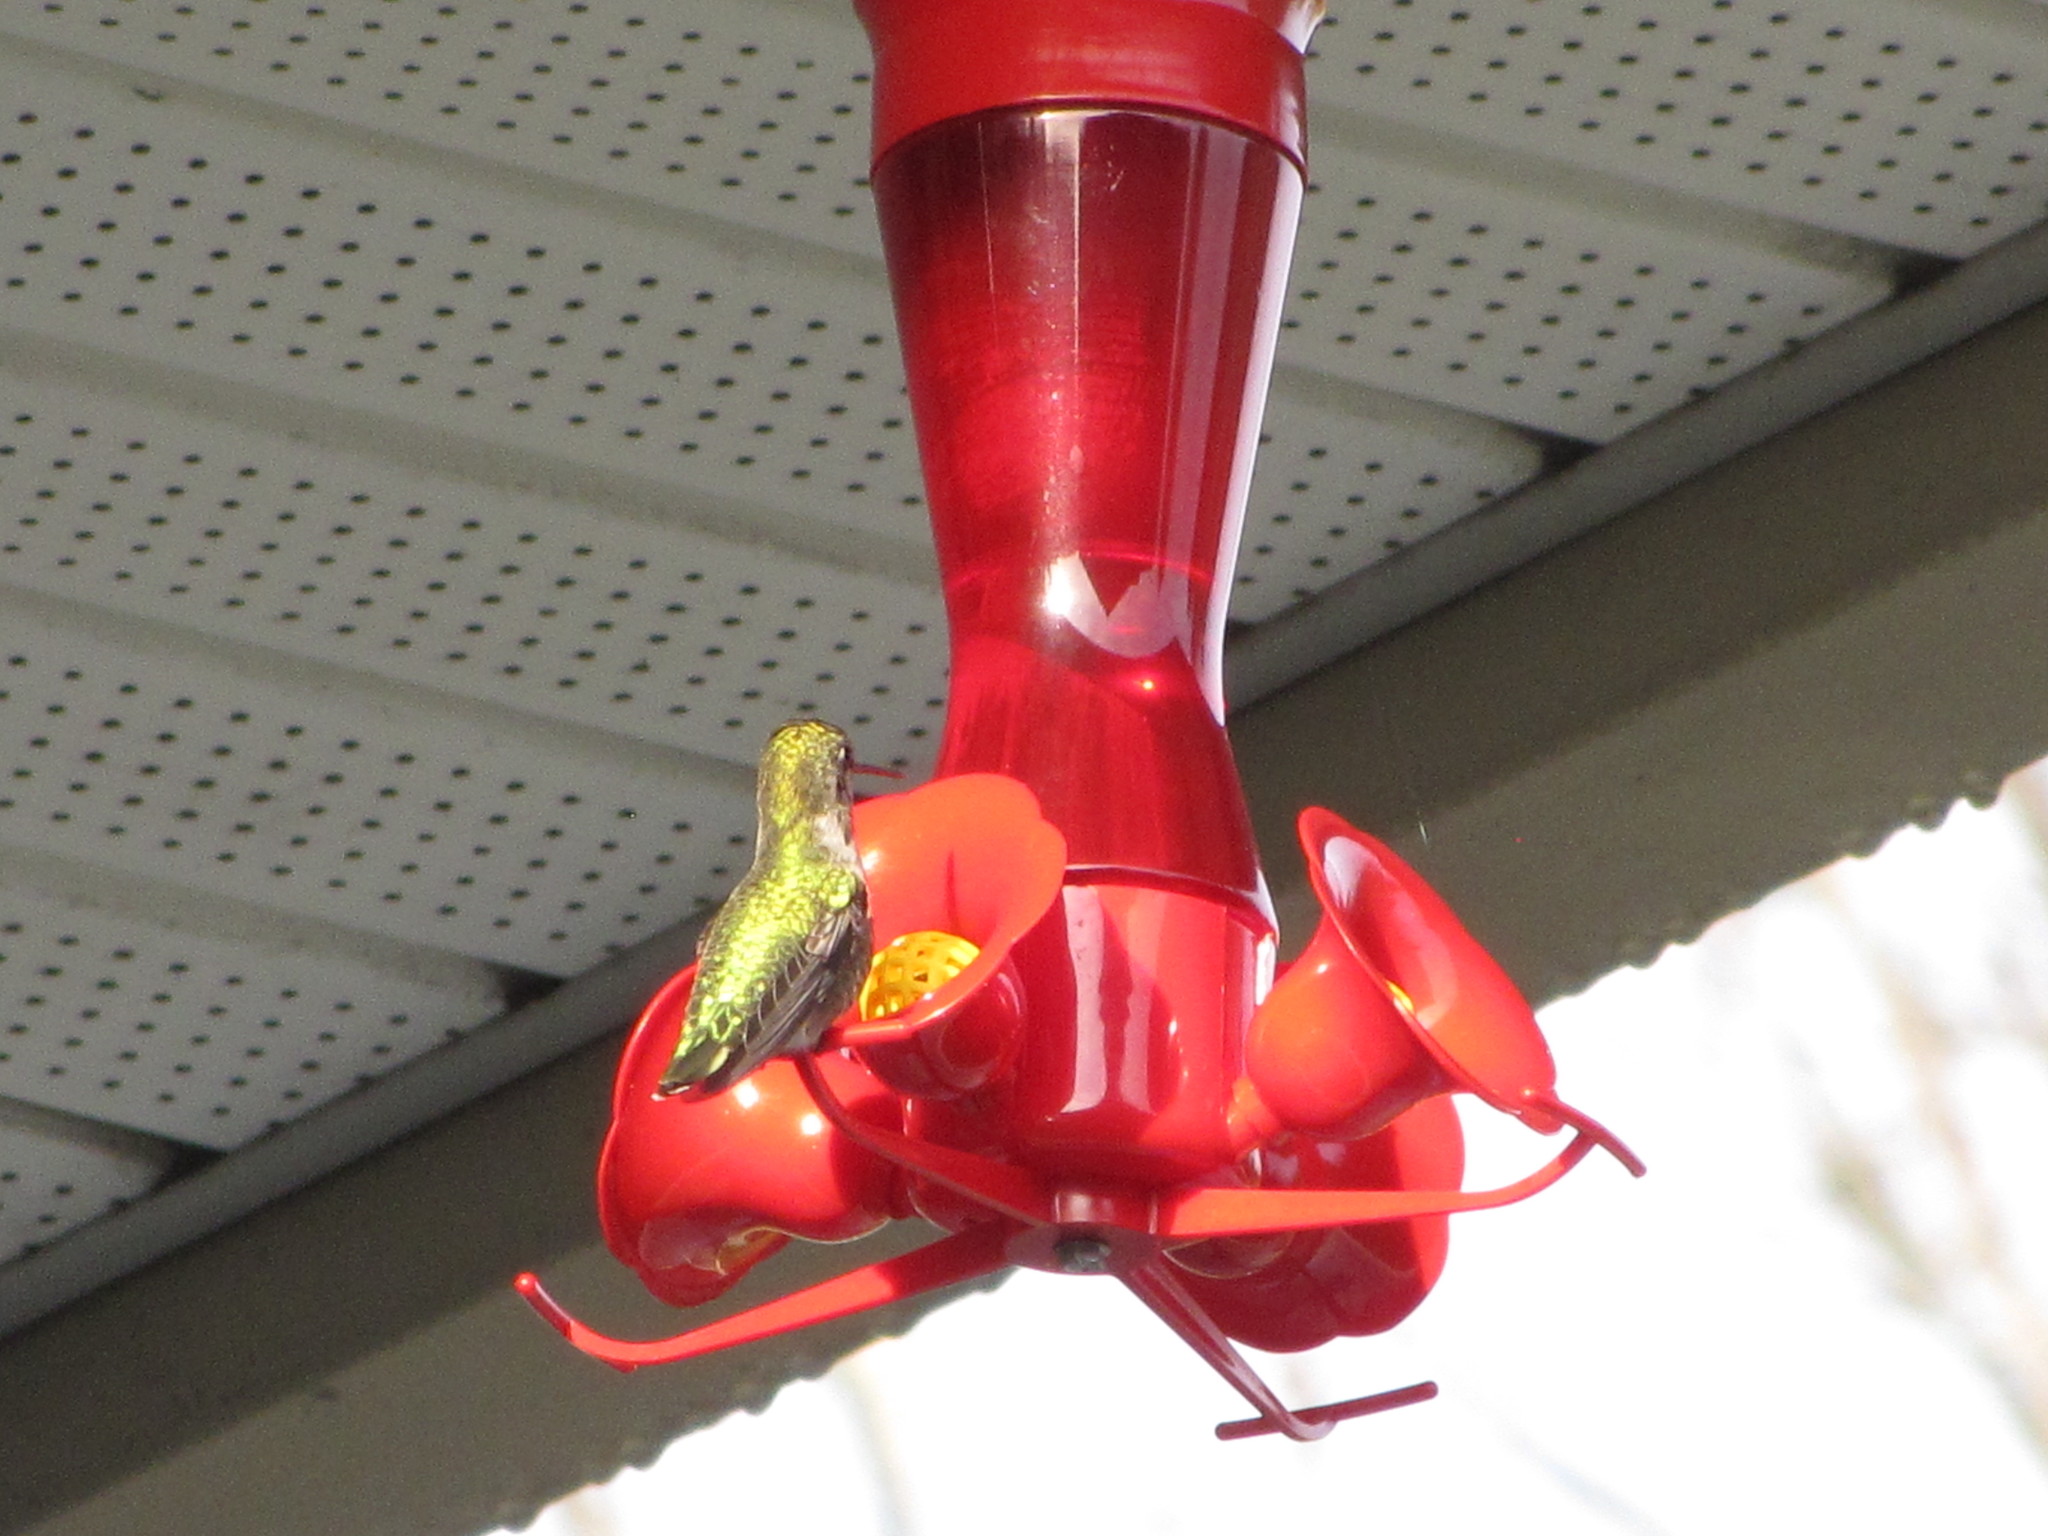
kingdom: Animalia
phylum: Chordata
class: Aves
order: Apodiformes
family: Trochilidae
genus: Calypte
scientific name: Calypte anna
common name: Anna's hummingbird
